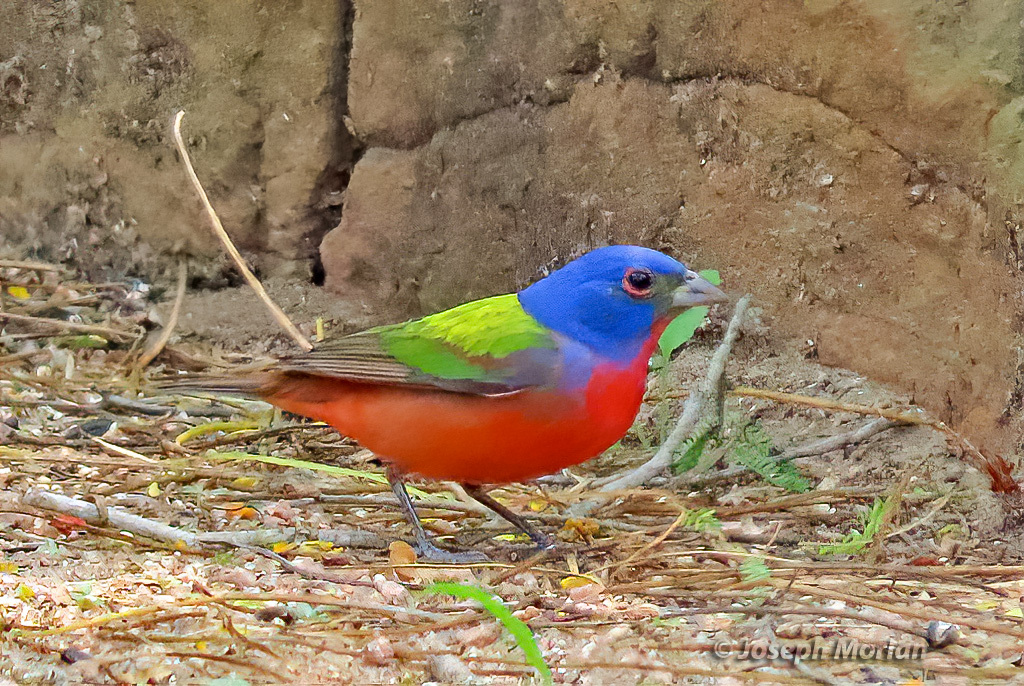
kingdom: Animalia
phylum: Chordata
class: Aves
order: Passeriformes
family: Cardinalidae
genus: Passerina
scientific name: Passerina ciris
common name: Painted bunting
